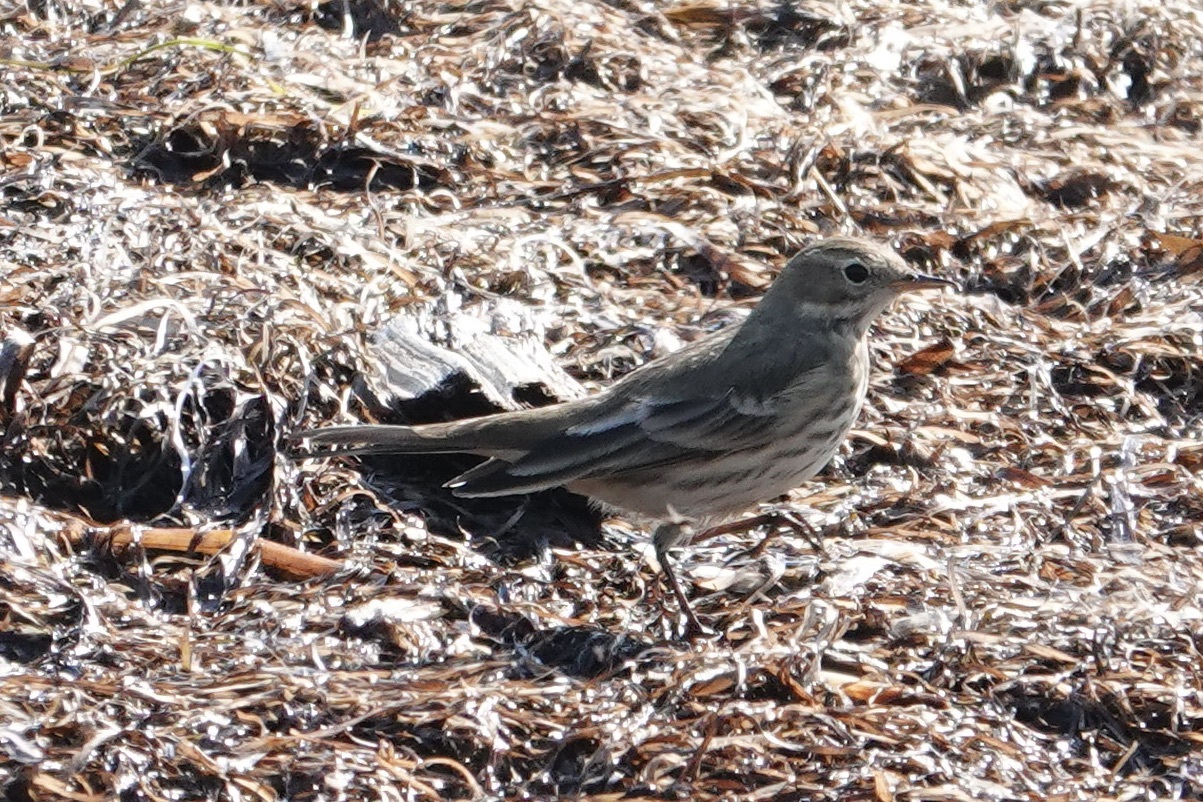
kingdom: Animalia
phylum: Chordata
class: Aves
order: Passeriformes
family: Motacillidae
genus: Anthus
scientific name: Anthus rubescens
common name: Buff-bellied pipit
